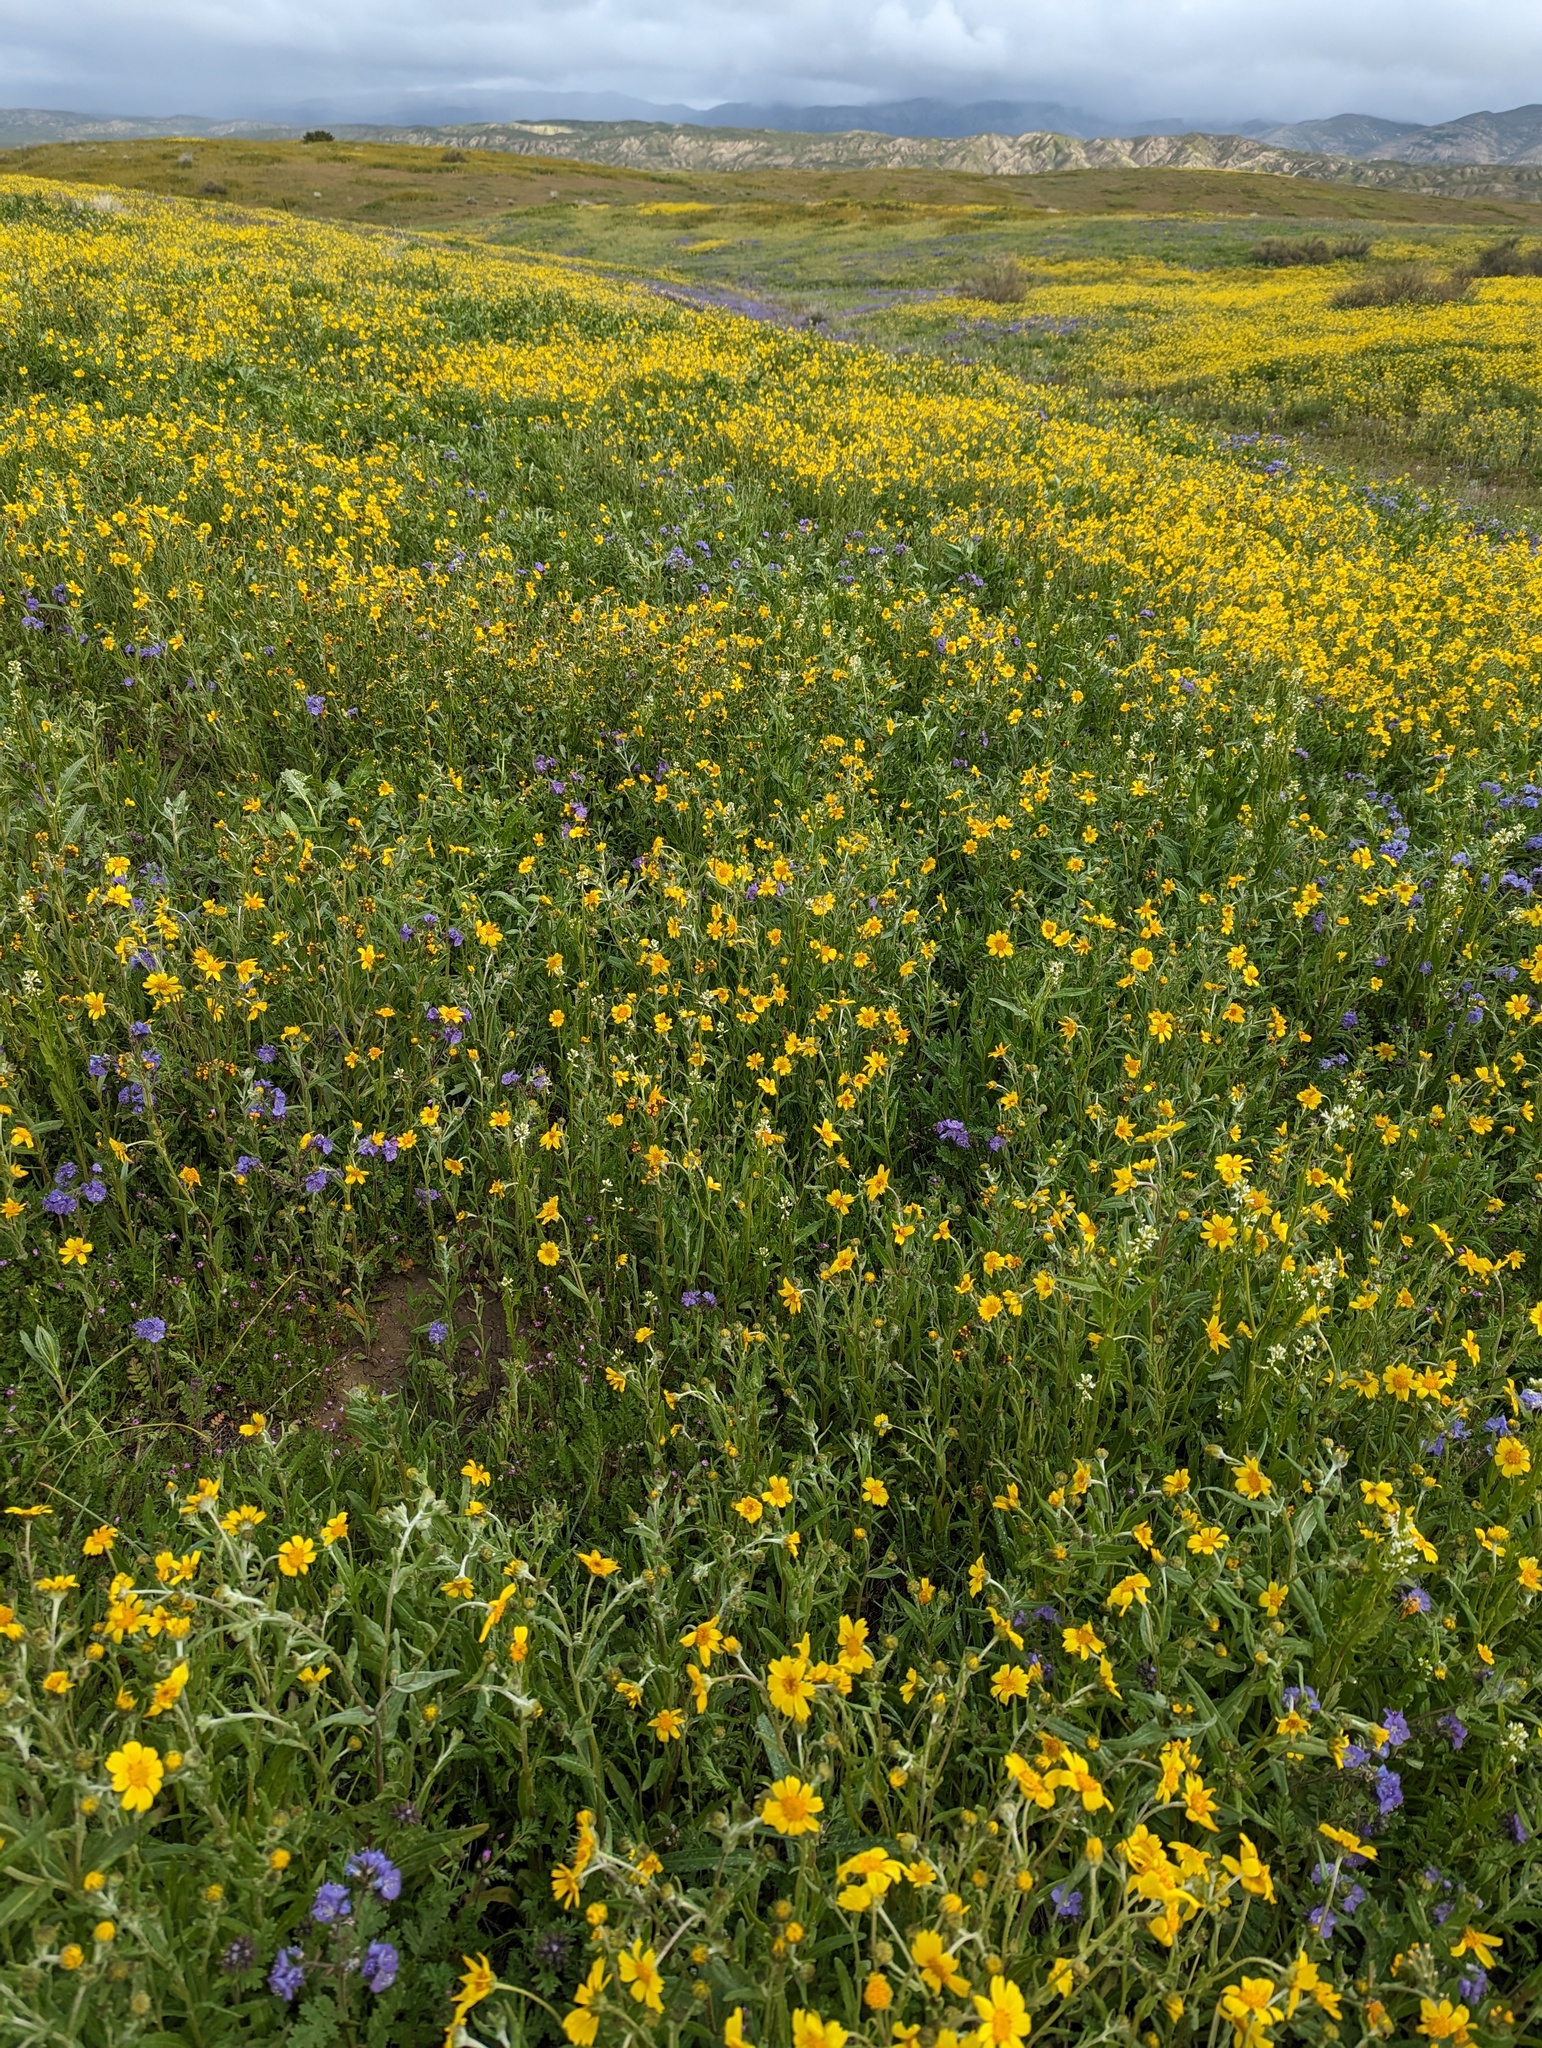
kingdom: Plantae
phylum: Tracheophyta
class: Magnoliopsida
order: Asterales
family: Asteraceae
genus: Monolopia
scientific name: Monolopia lanceolata
